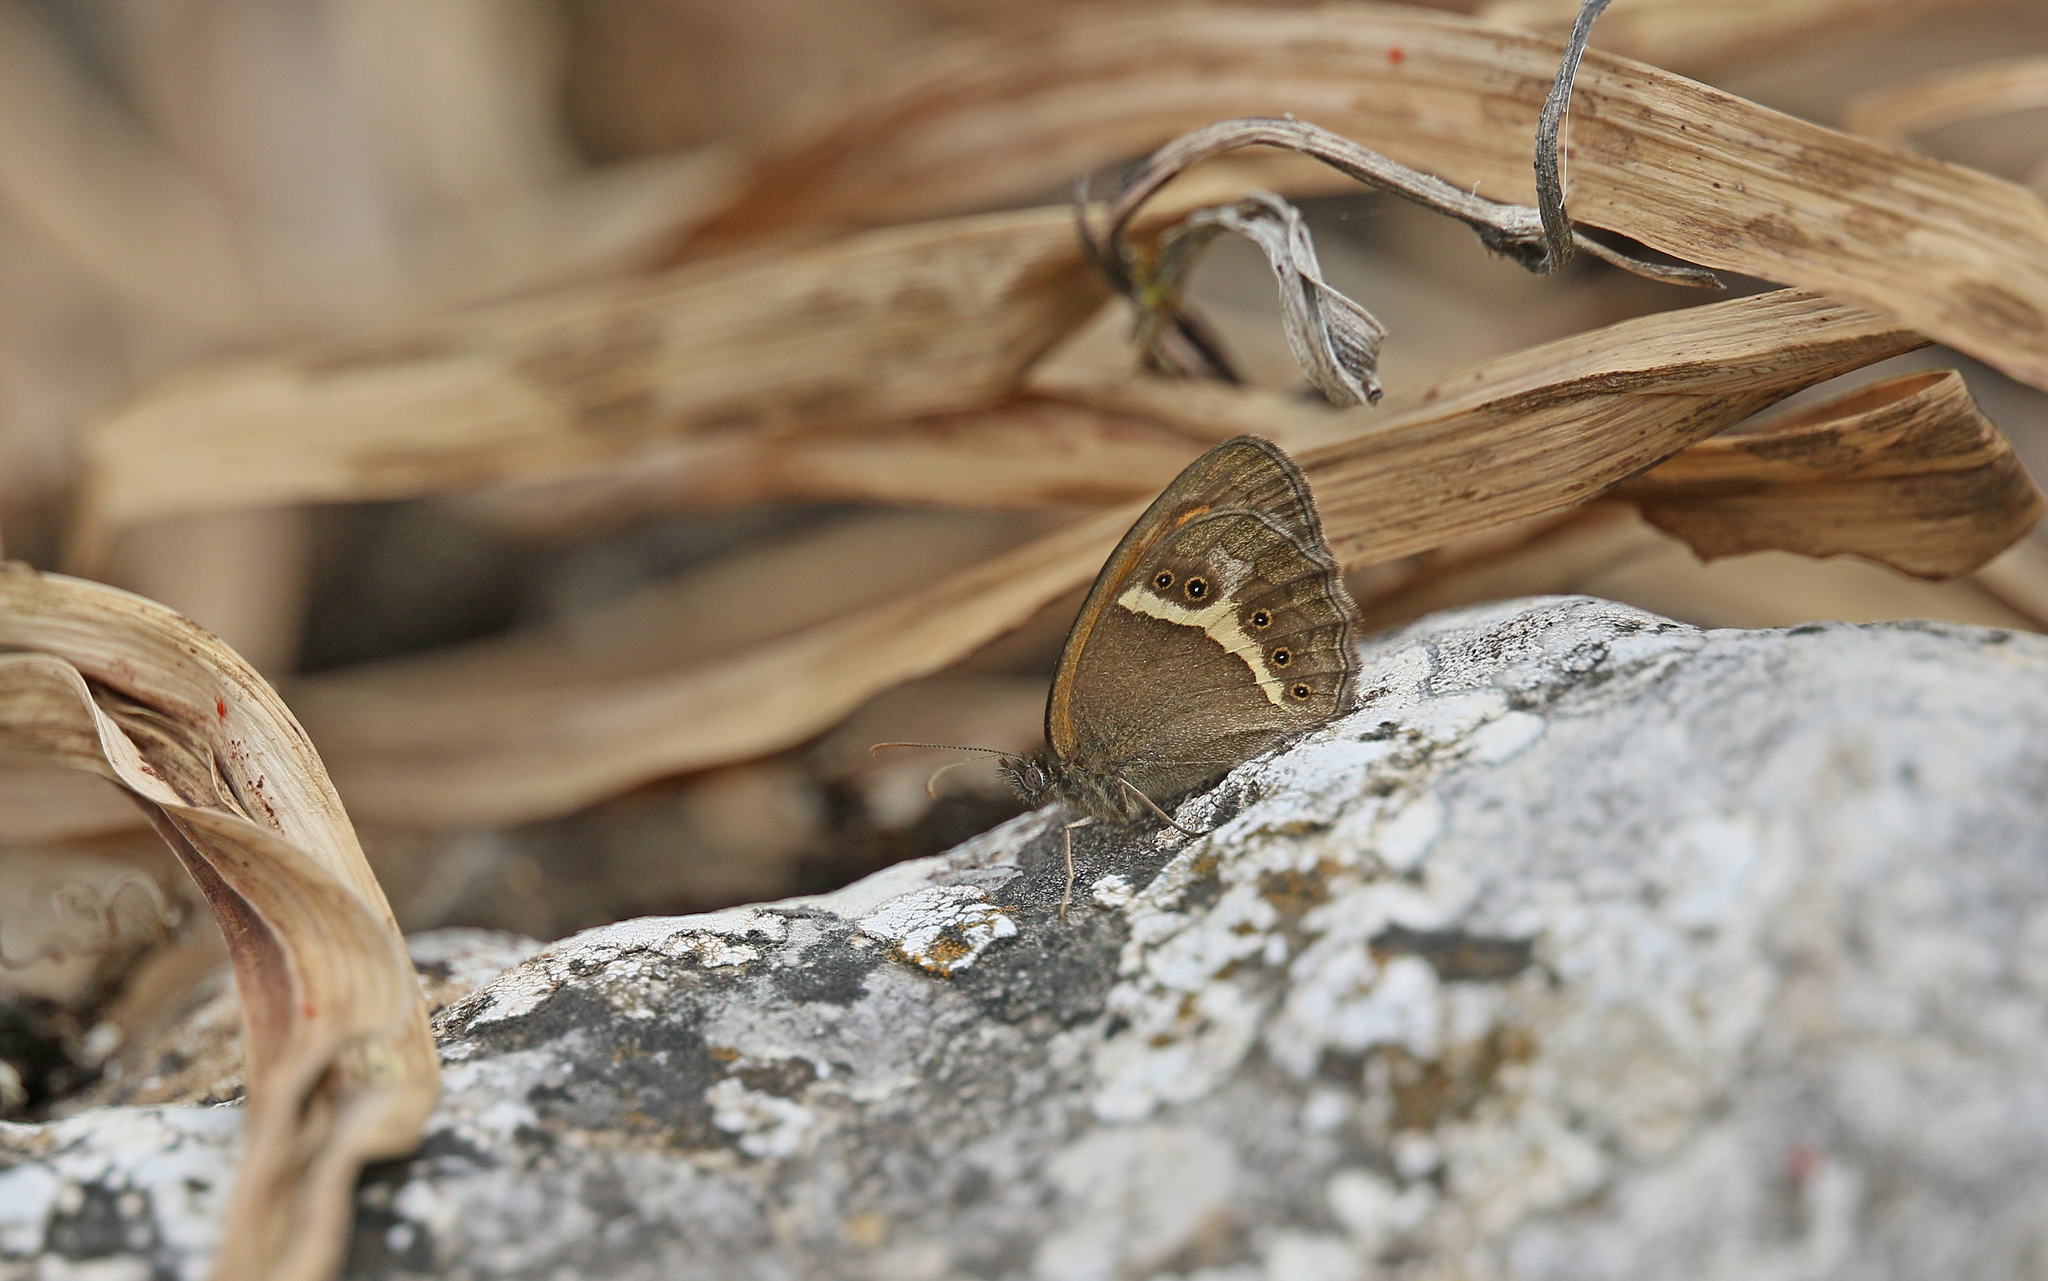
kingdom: Animalia
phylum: Arthropoda
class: Insecta
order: Lepidoptera
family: Nymphalidae
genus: Pyronia
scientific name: Pyronia bathseba
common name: Spanish gatekeeper
